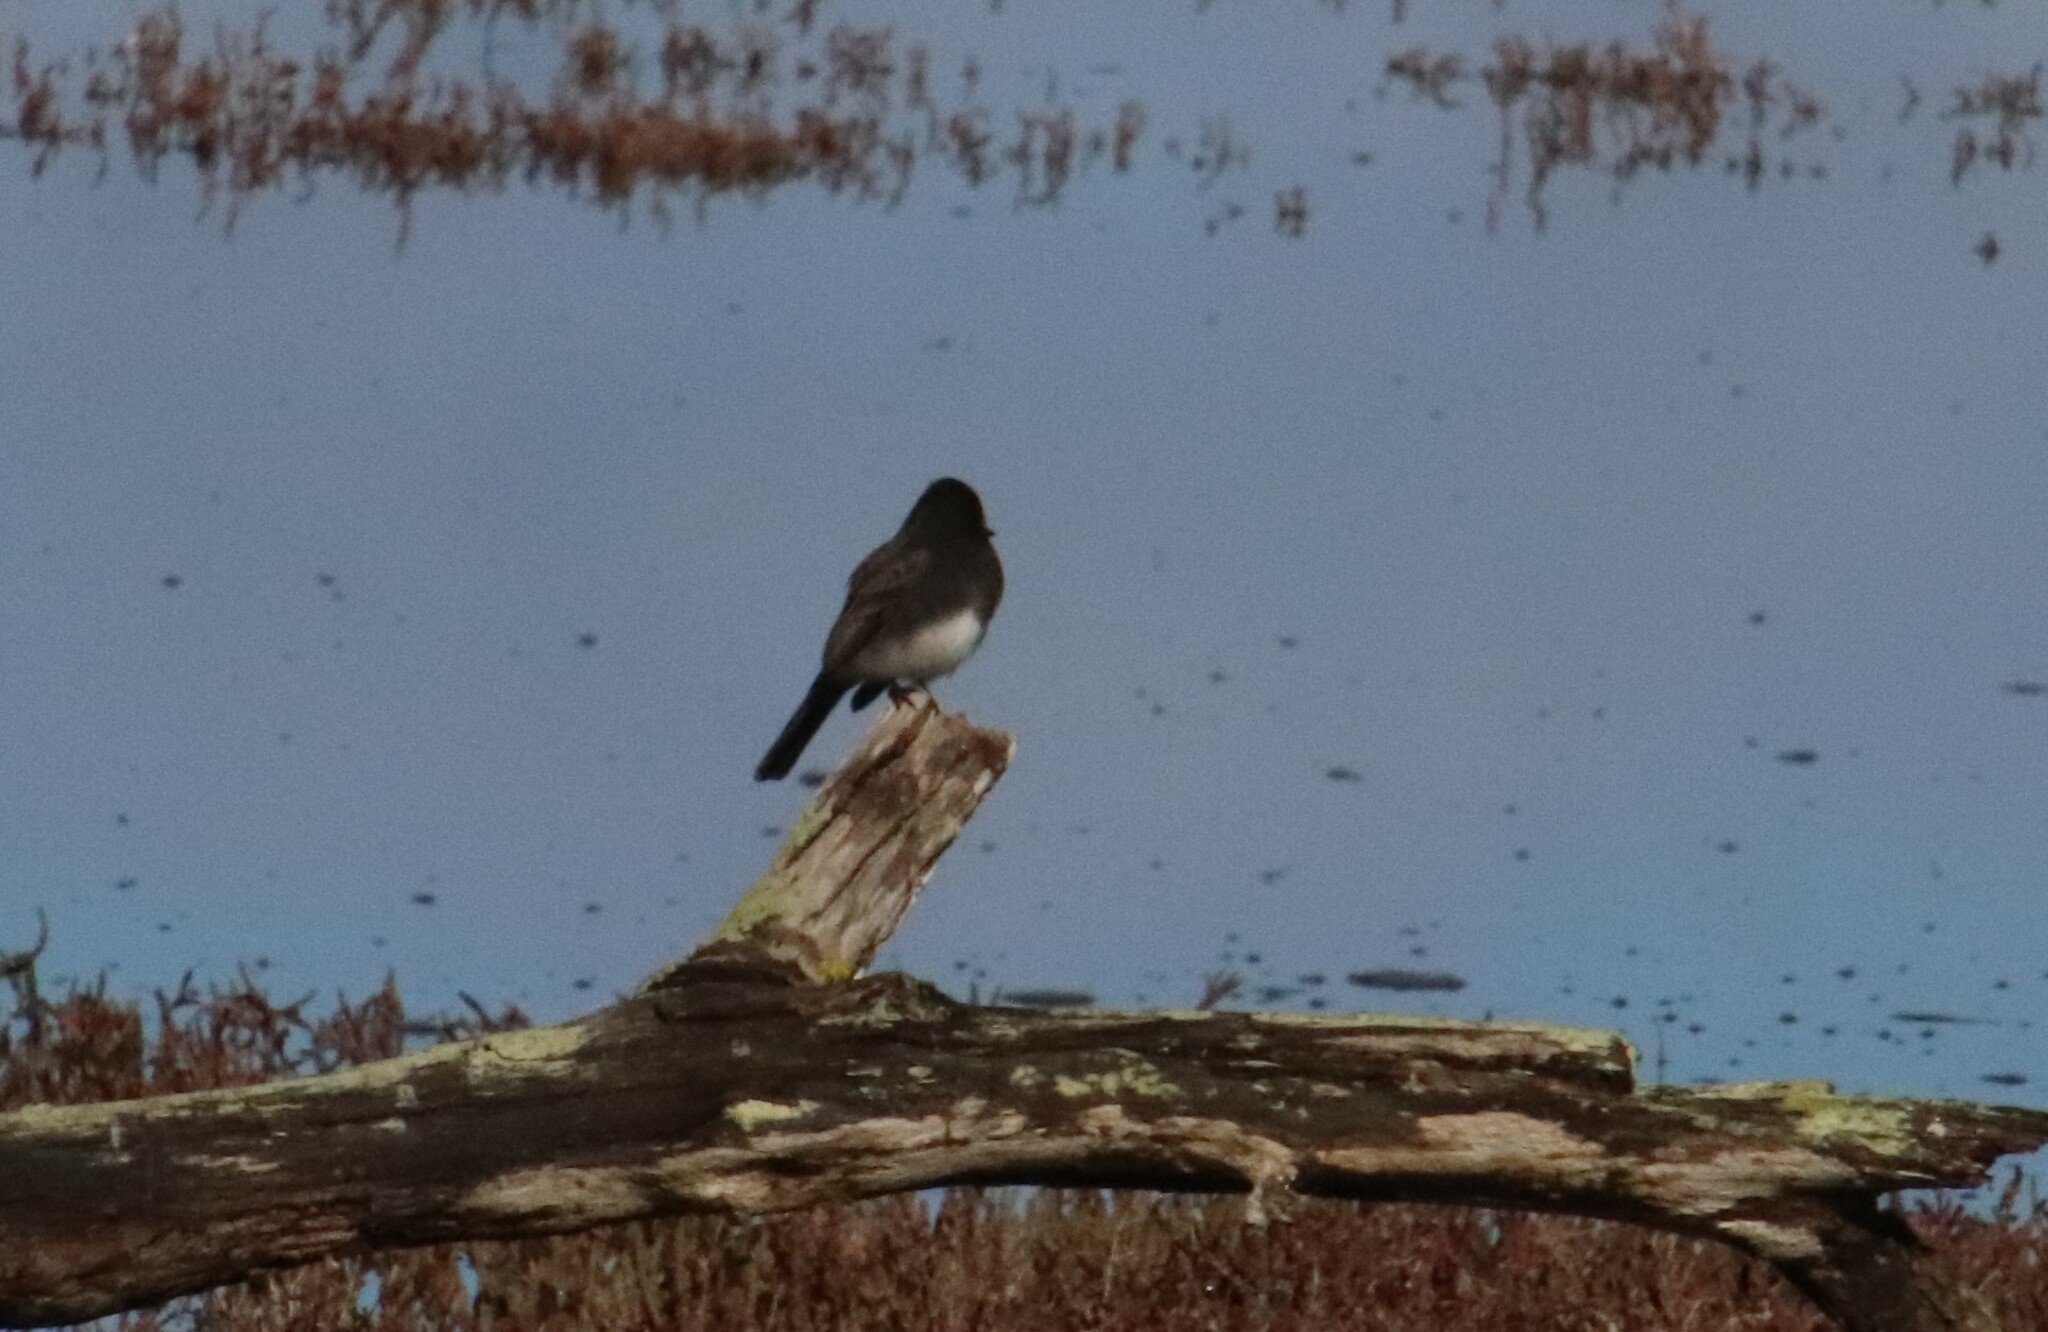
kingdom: Animalia
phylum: Chordata
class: Aves
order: Passeriformes
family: Tyrannidae
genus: Sayornis
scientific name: Sayornis nigricans
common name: Black phoebe
